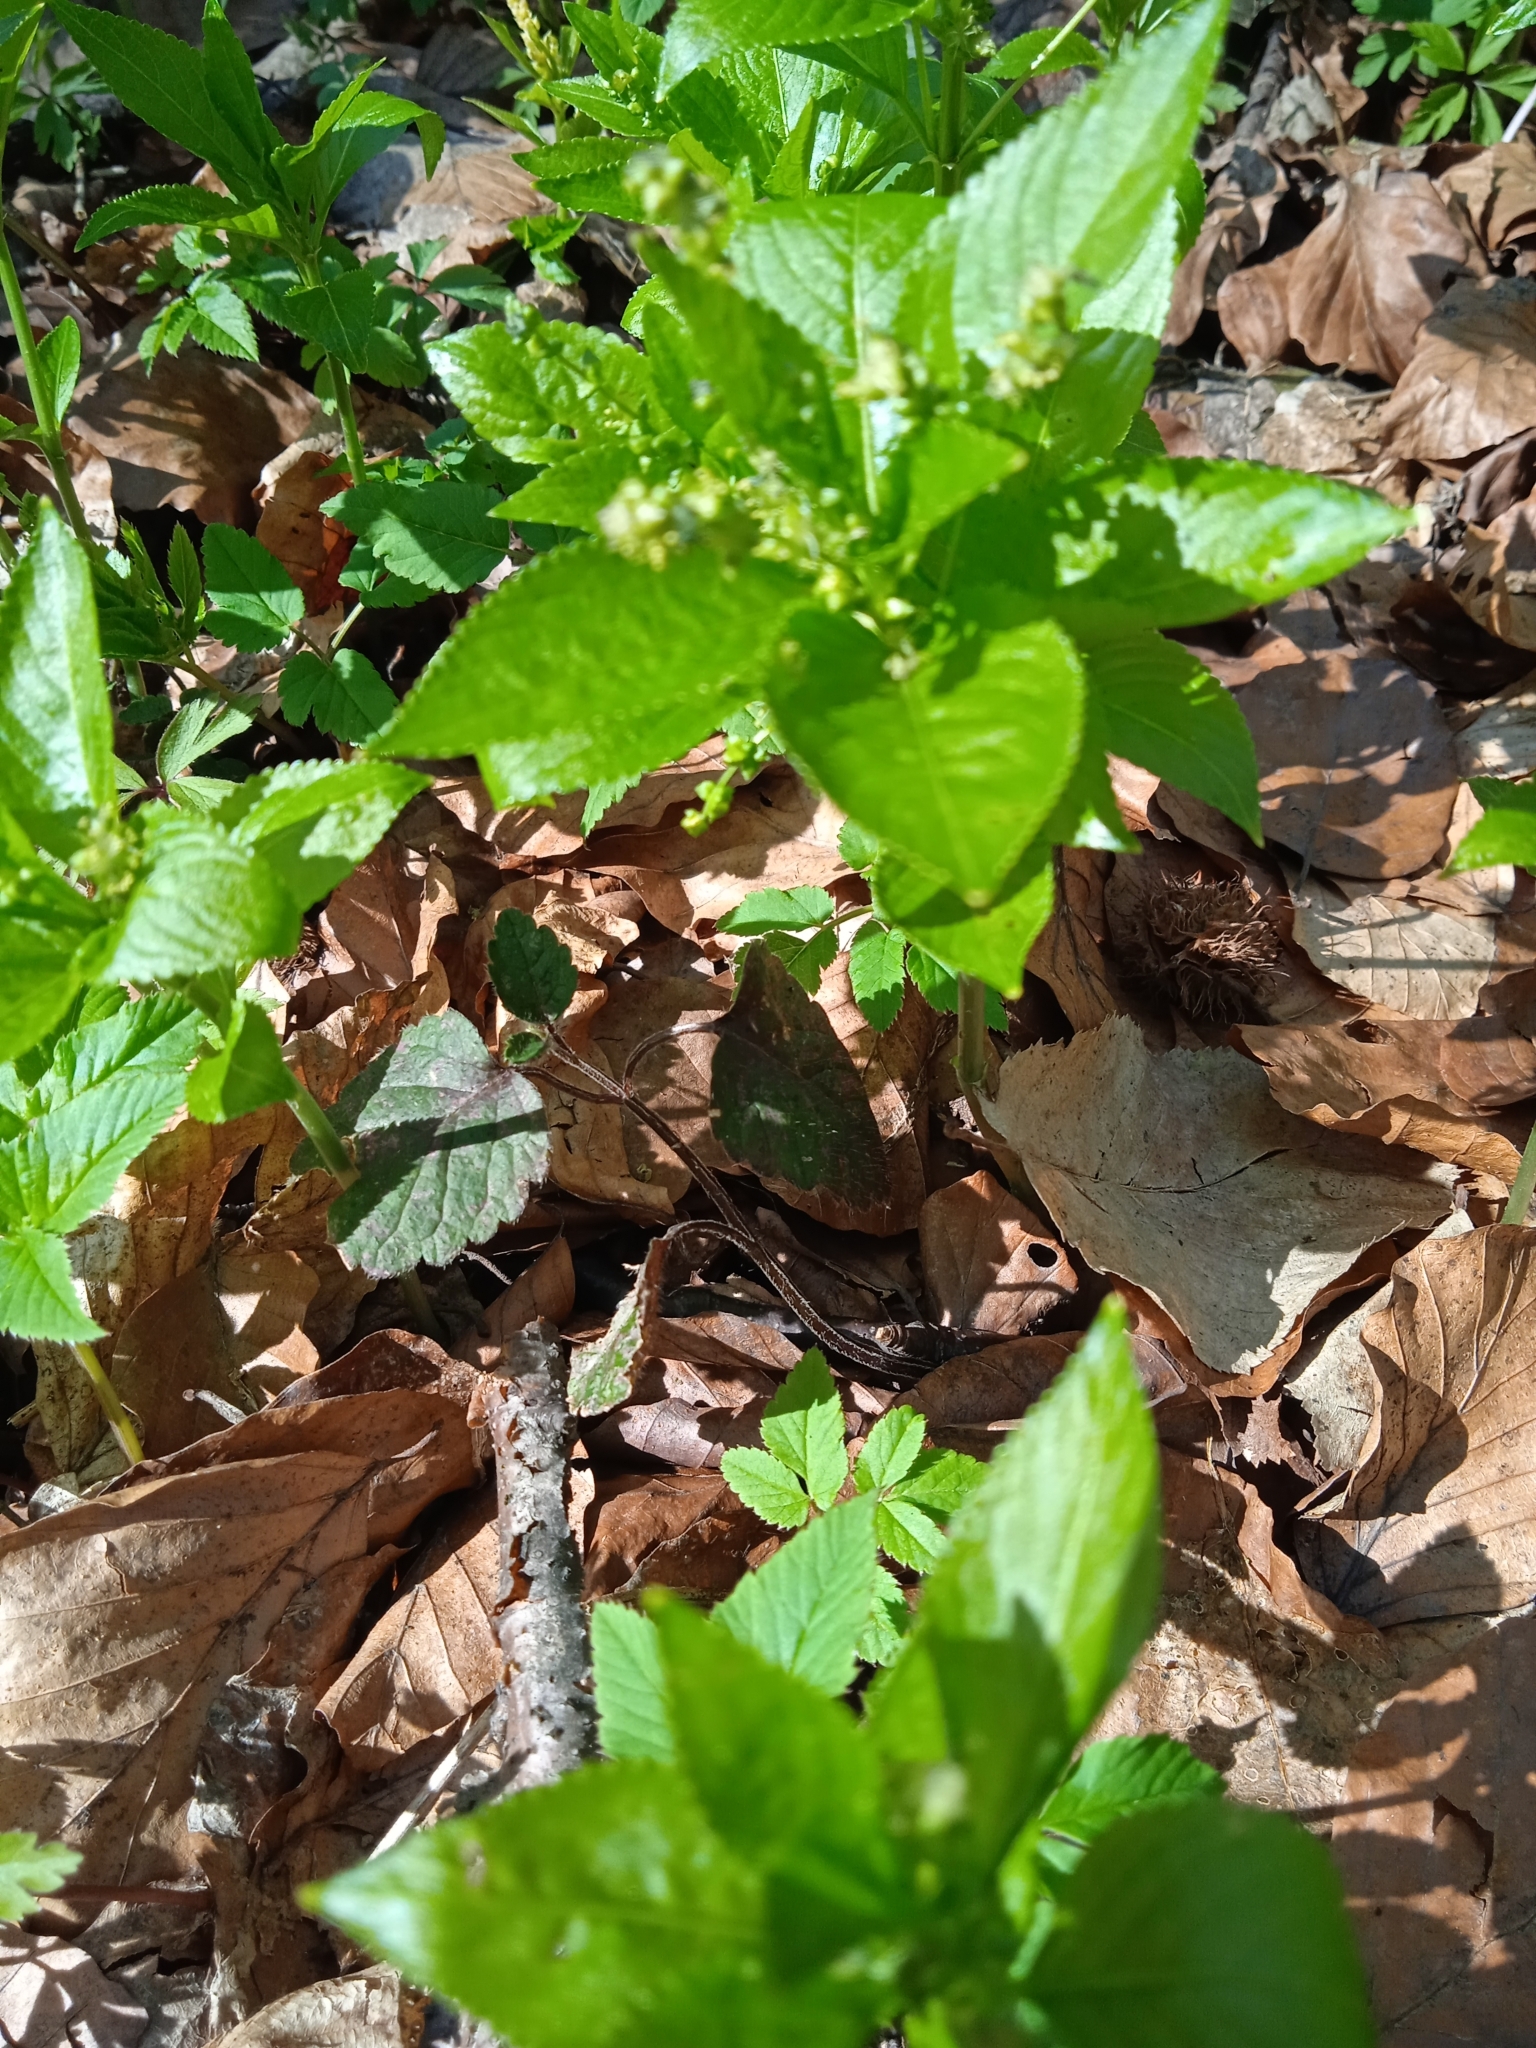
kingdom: Plantae
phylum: Tracheophyta
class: Magnoliopsida
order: Malpighiales
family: Euphorbiaceae
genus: Mercurialis
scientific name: Mercurialis perennis
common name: Dog mercury
